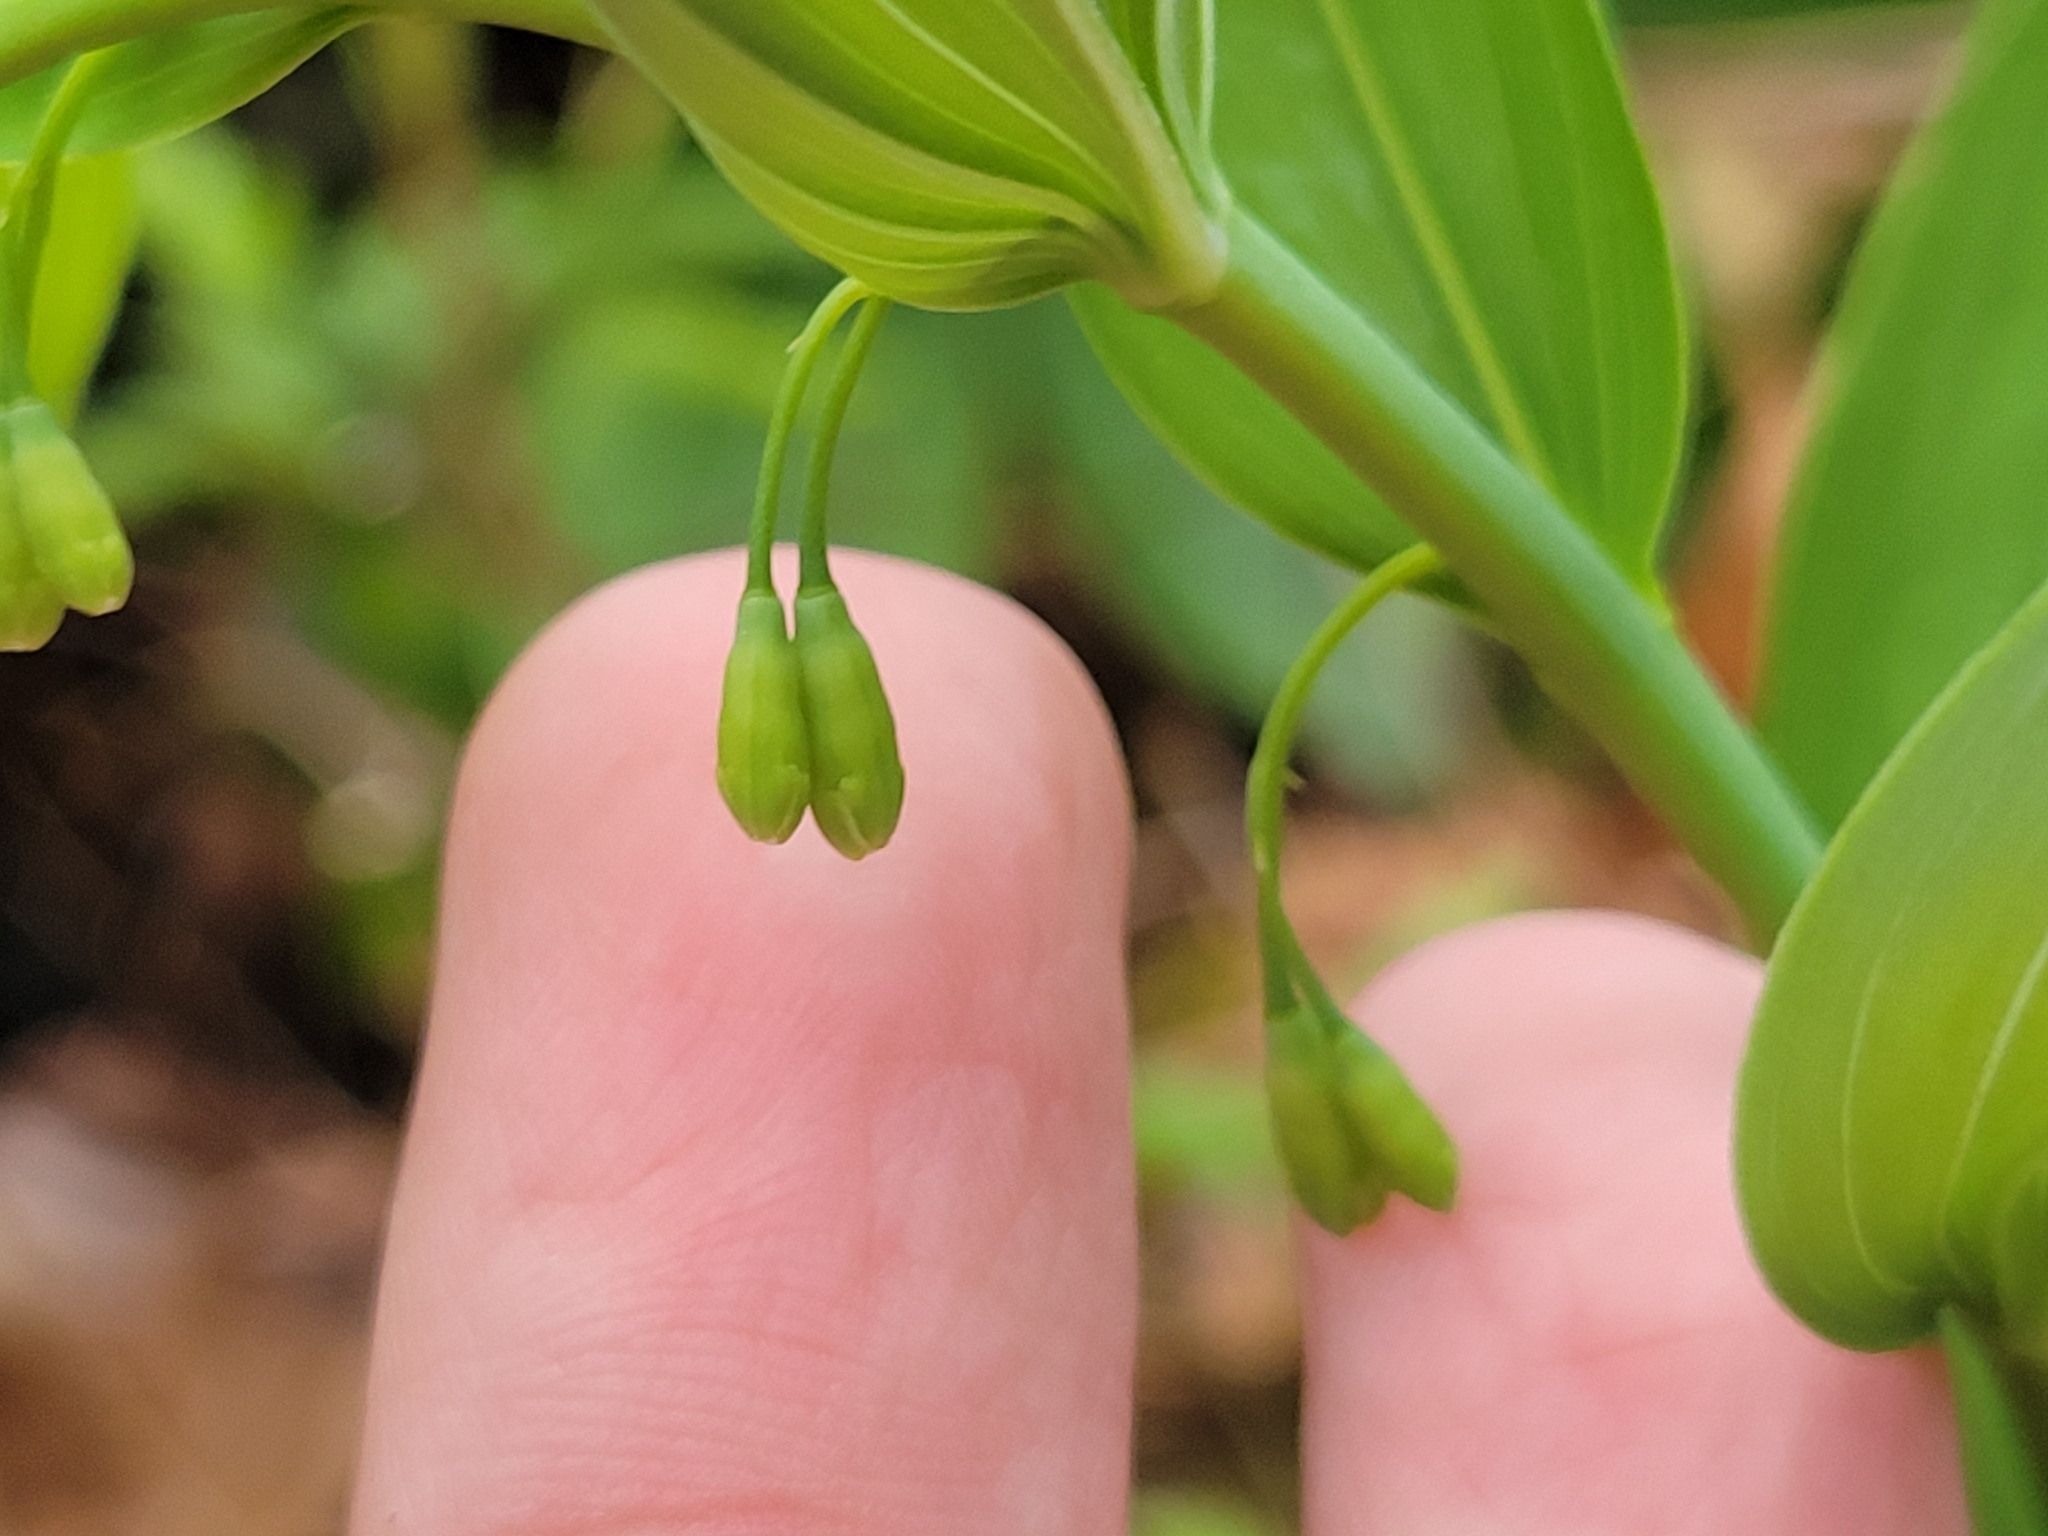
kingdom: Plantae
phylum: Tracheophyta
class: Liliopsida
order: Asparagales
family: Asparagaceae
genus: Polygonatum
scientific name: Polygonatum biflorum
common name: American solomon's-seal
